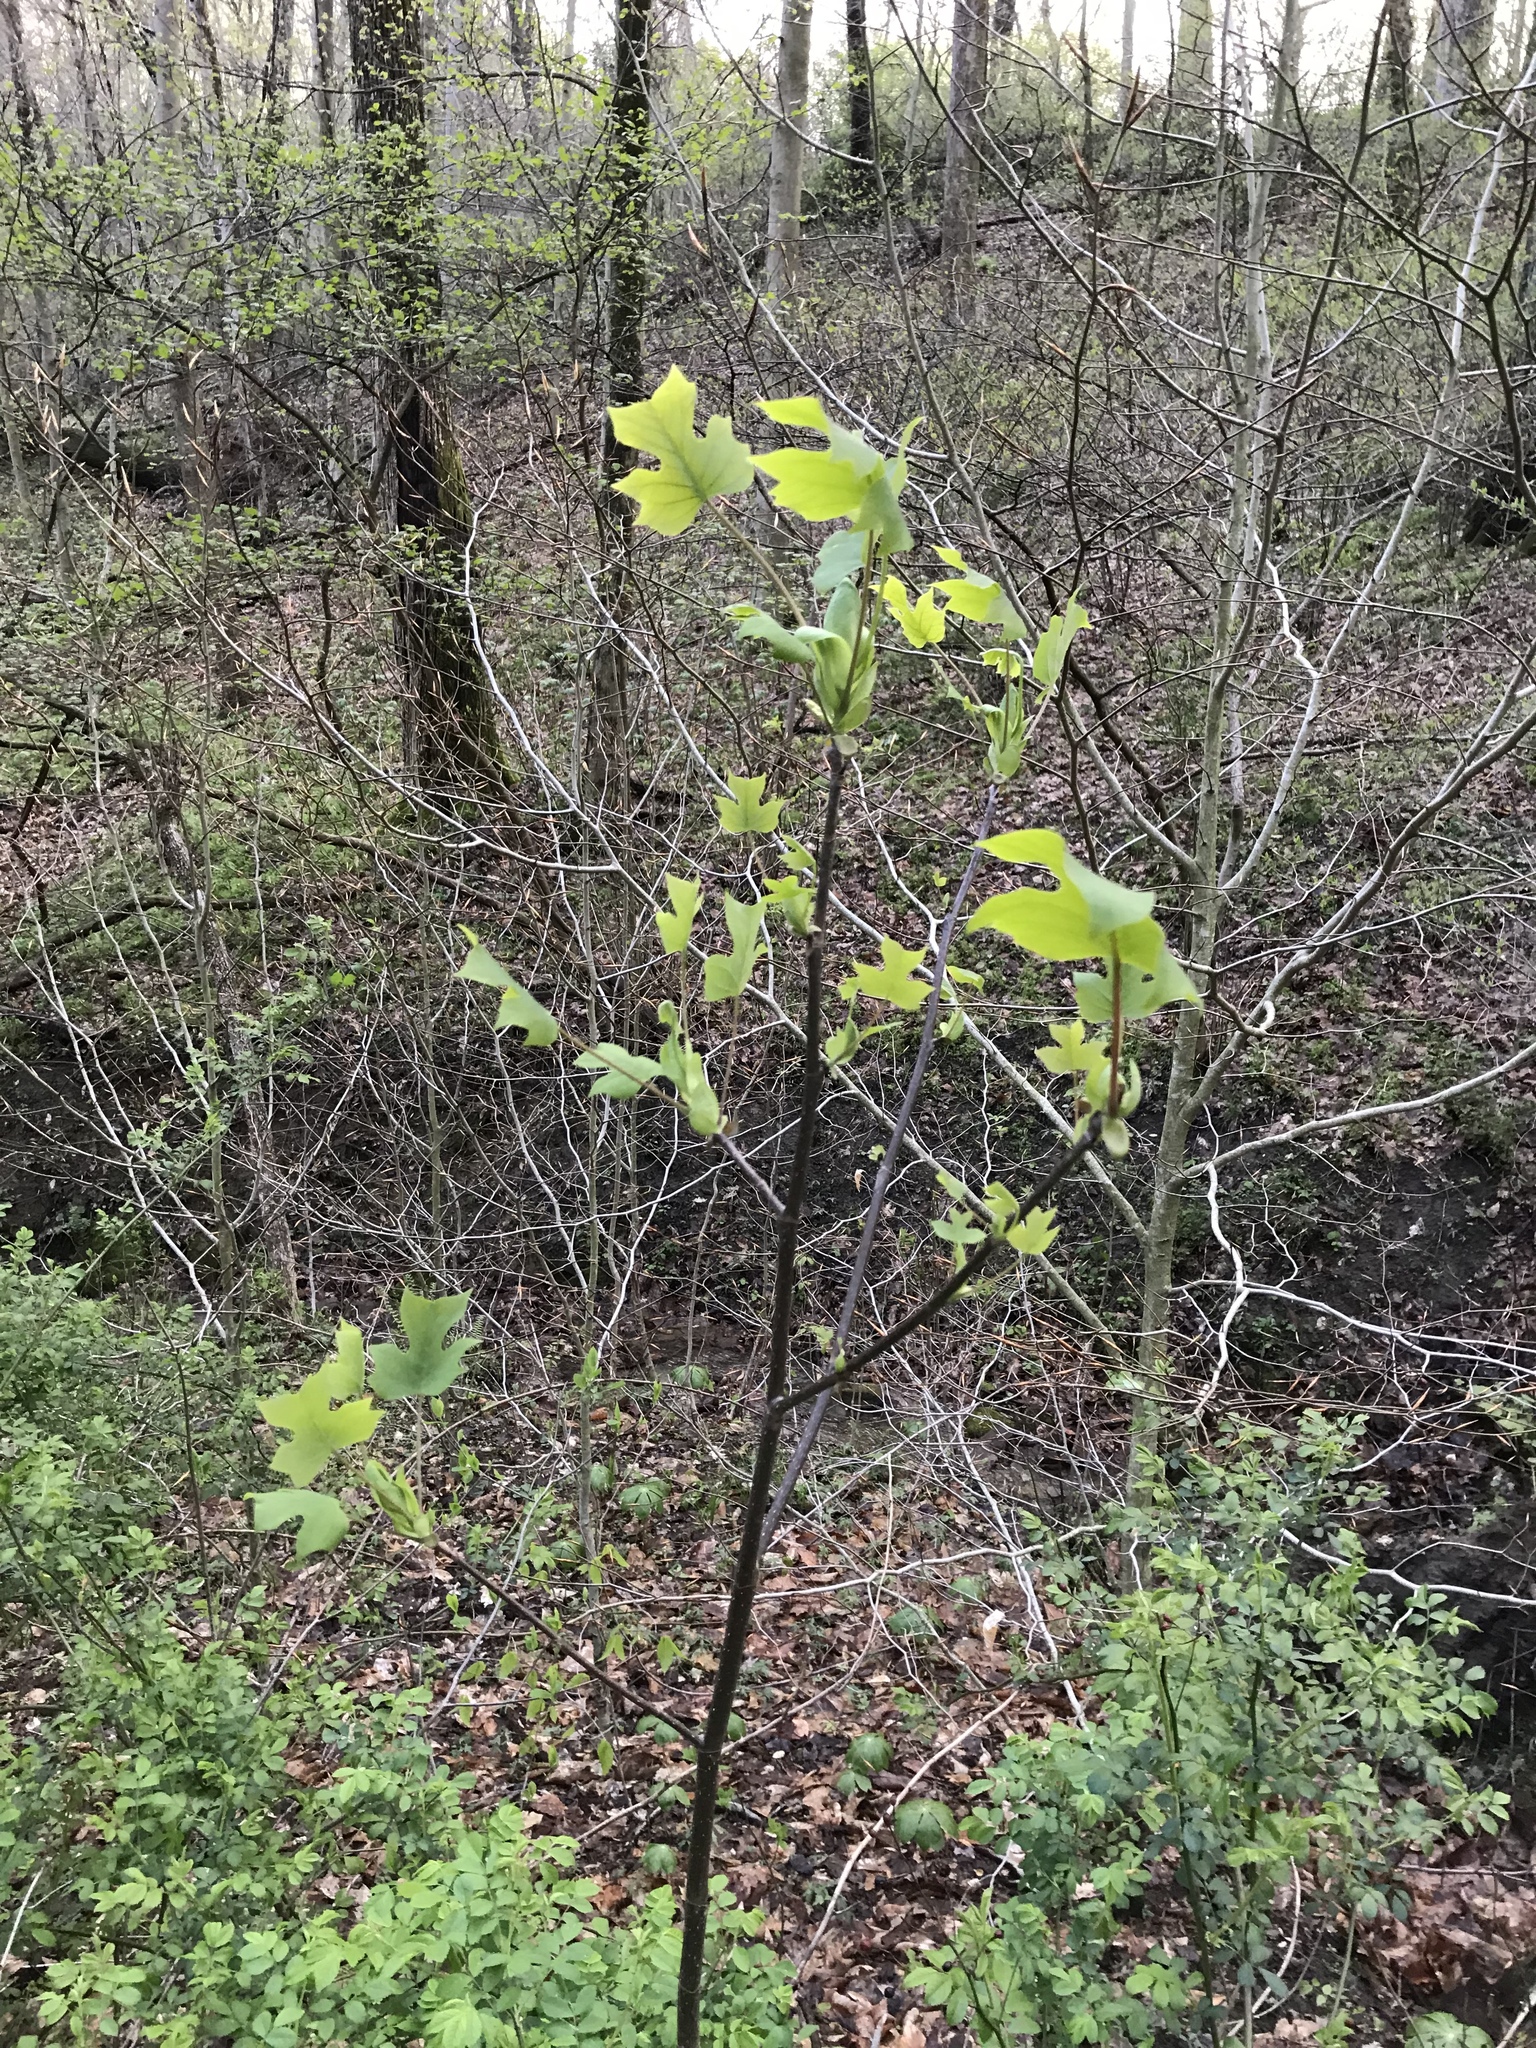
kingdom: Plantae
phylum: Tracheophyta
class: Magnoliopsida
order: Magnoliales
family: Magnoliaceae
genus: Liriodendron
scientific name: Liriodendron tulipifera
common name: Tulip tree
